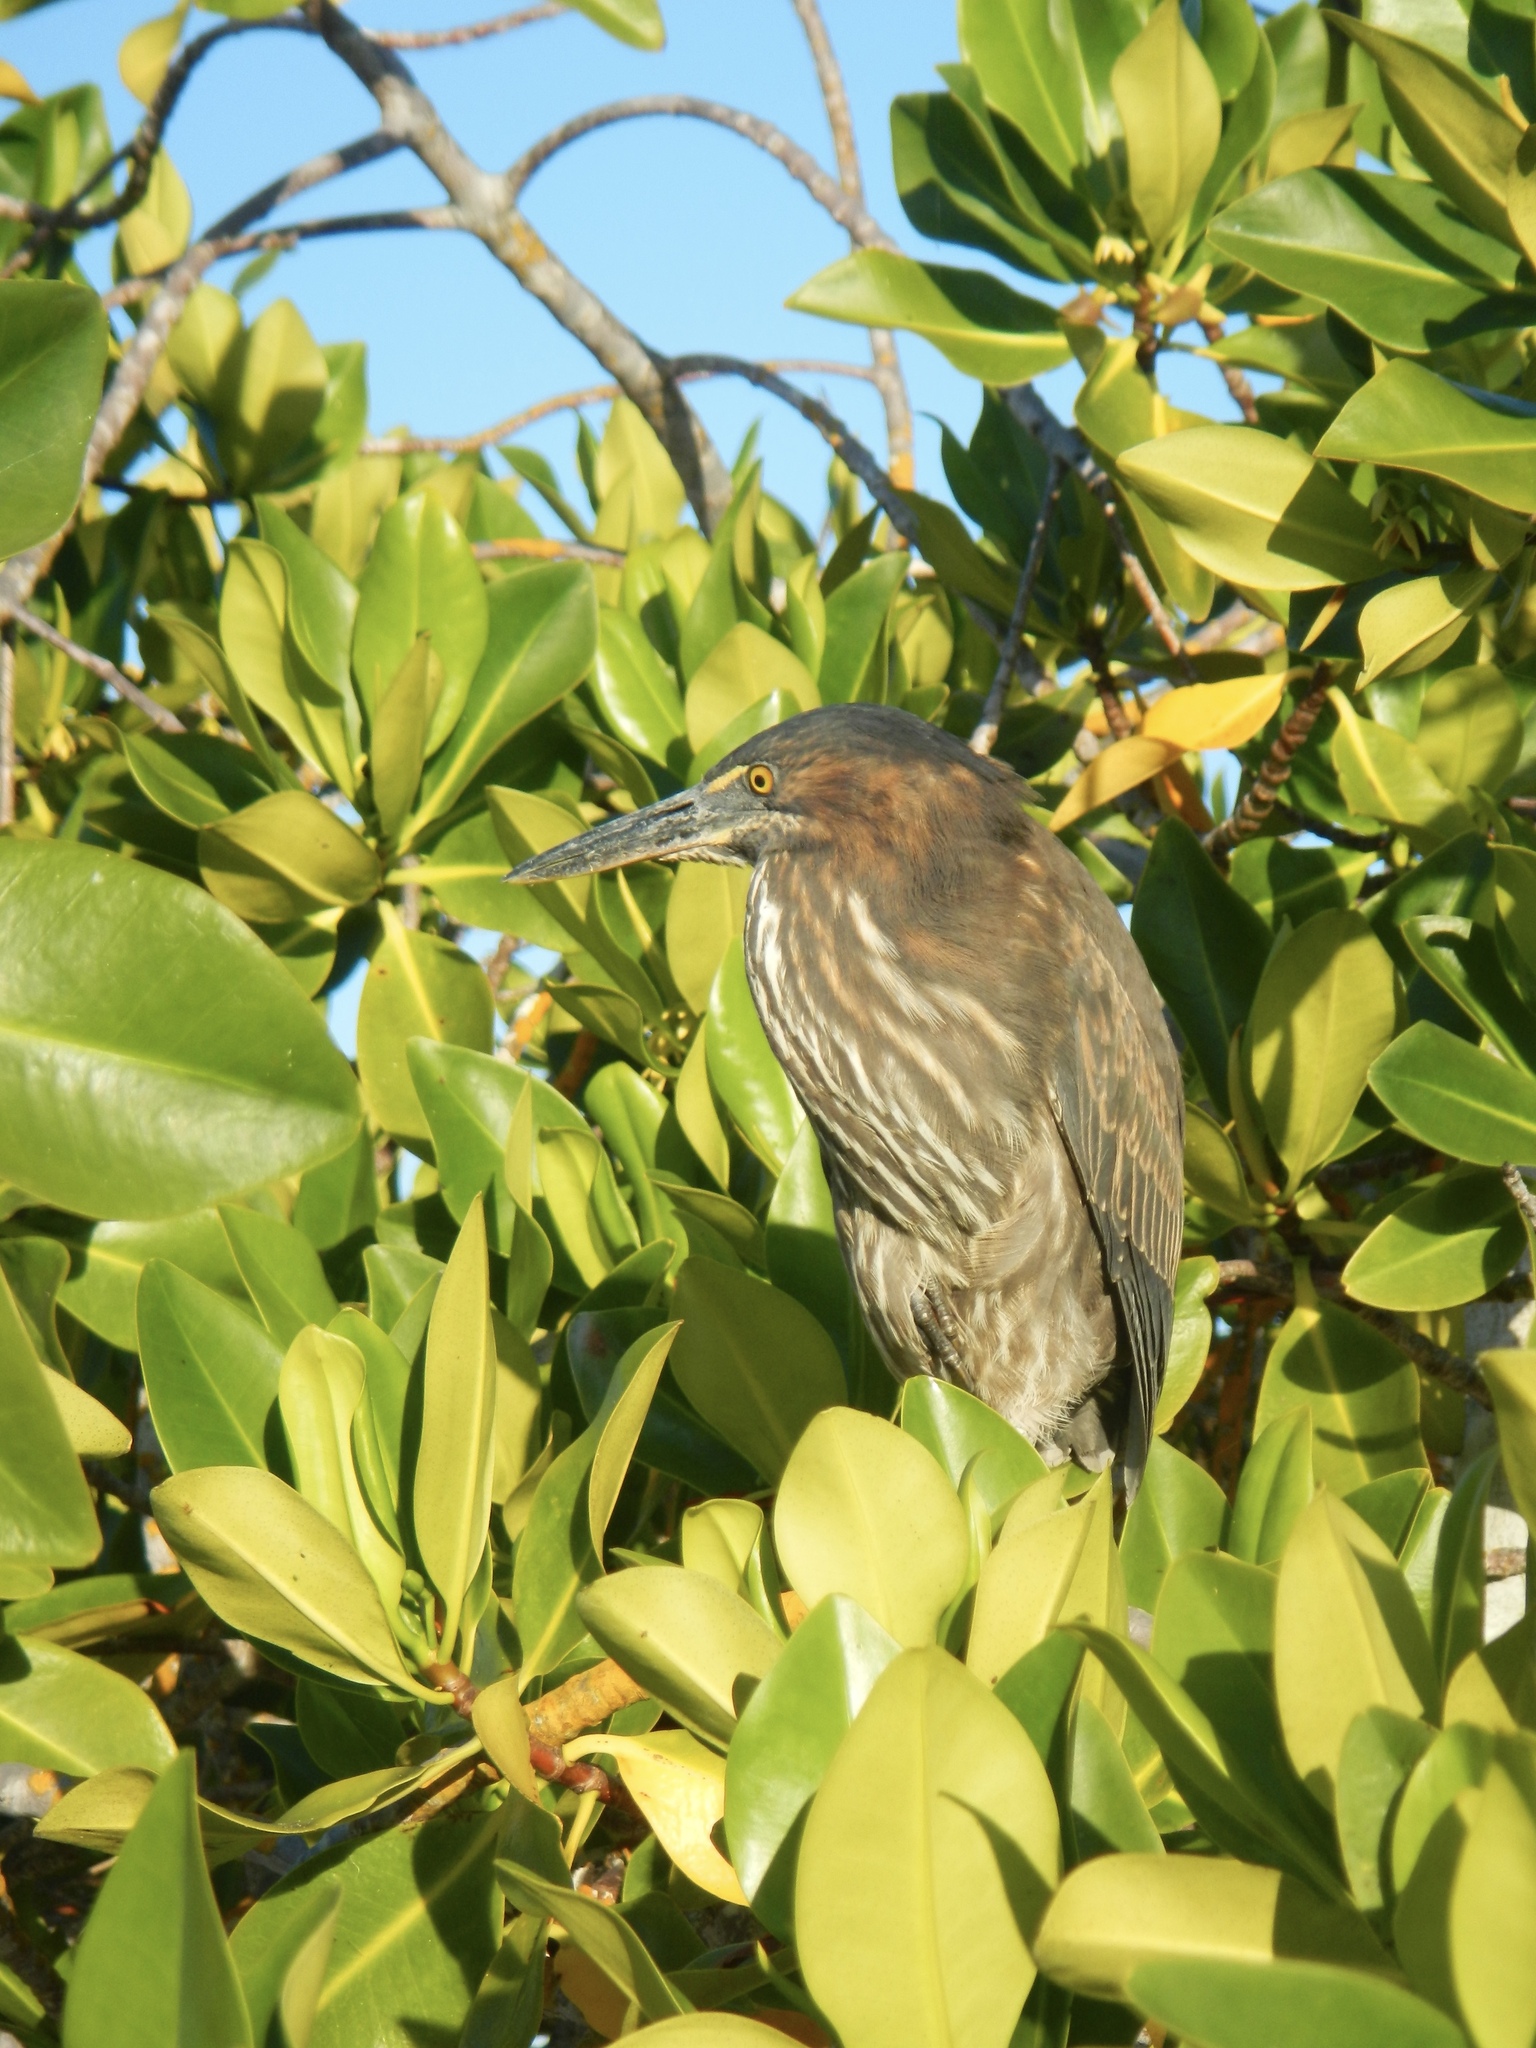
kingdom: Animalia
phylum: Chordata
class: Aves
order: Pelecaniformes
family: Ardeidae
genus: Butorides
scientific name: Butorides striata
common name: Striated heron
